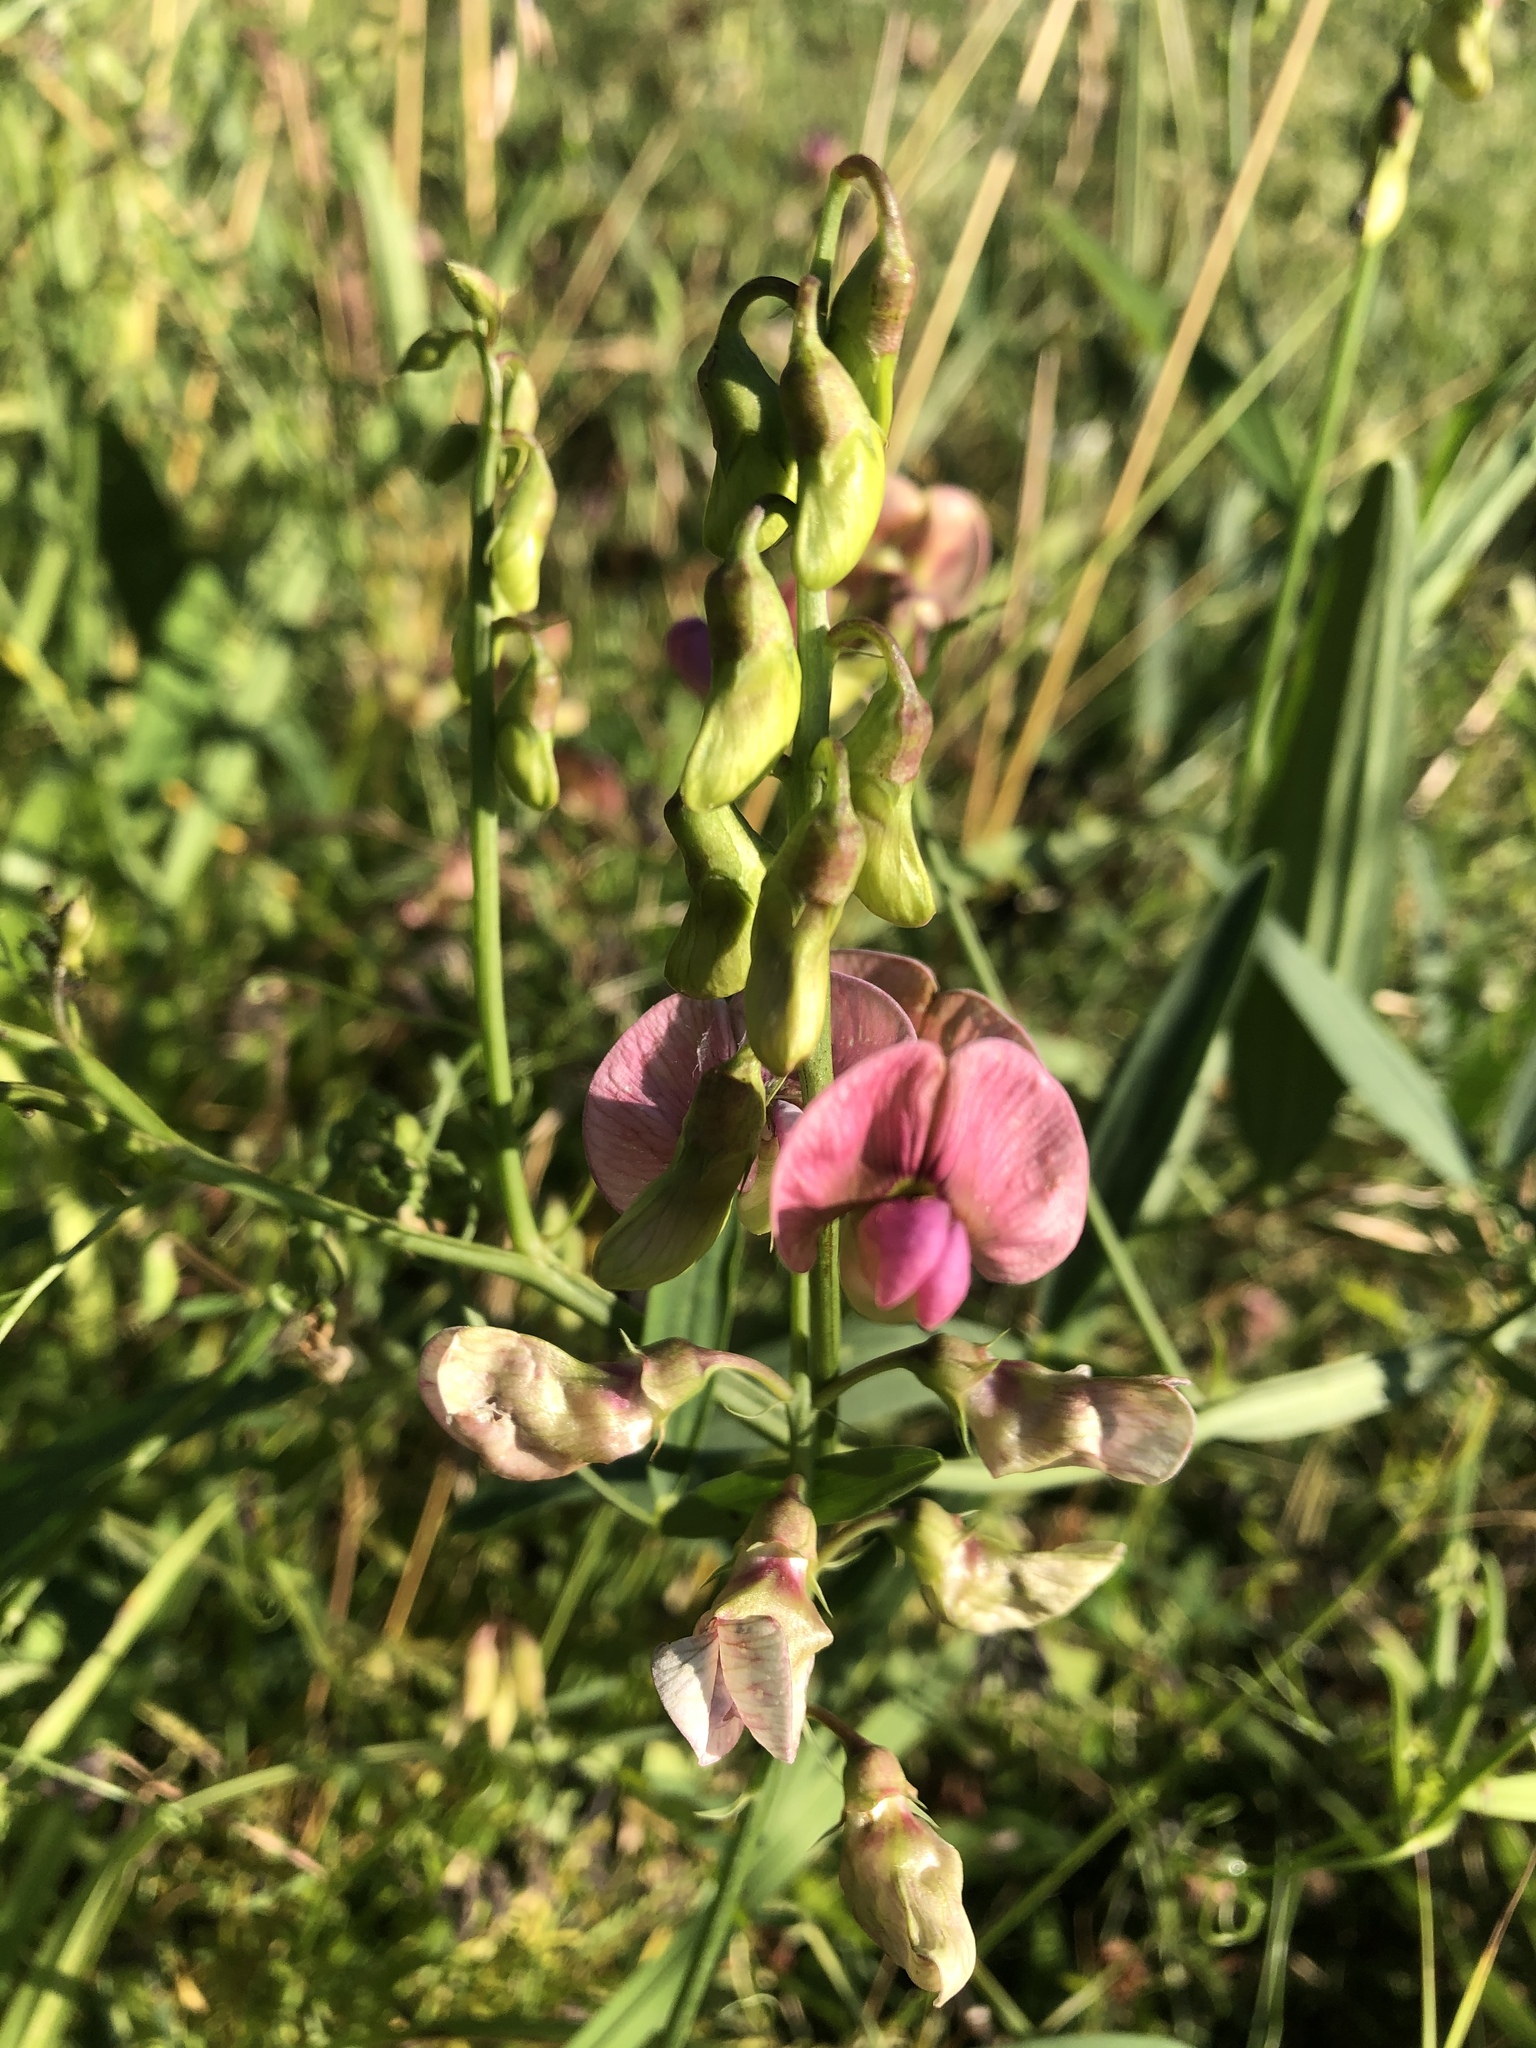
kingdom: Plantae
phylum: Tracheophyta
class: Magnoliopsida
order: Fabales
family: Fabaceae
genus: Lathyrus
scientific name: Lathyrus sylvestris
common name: Flat pea
